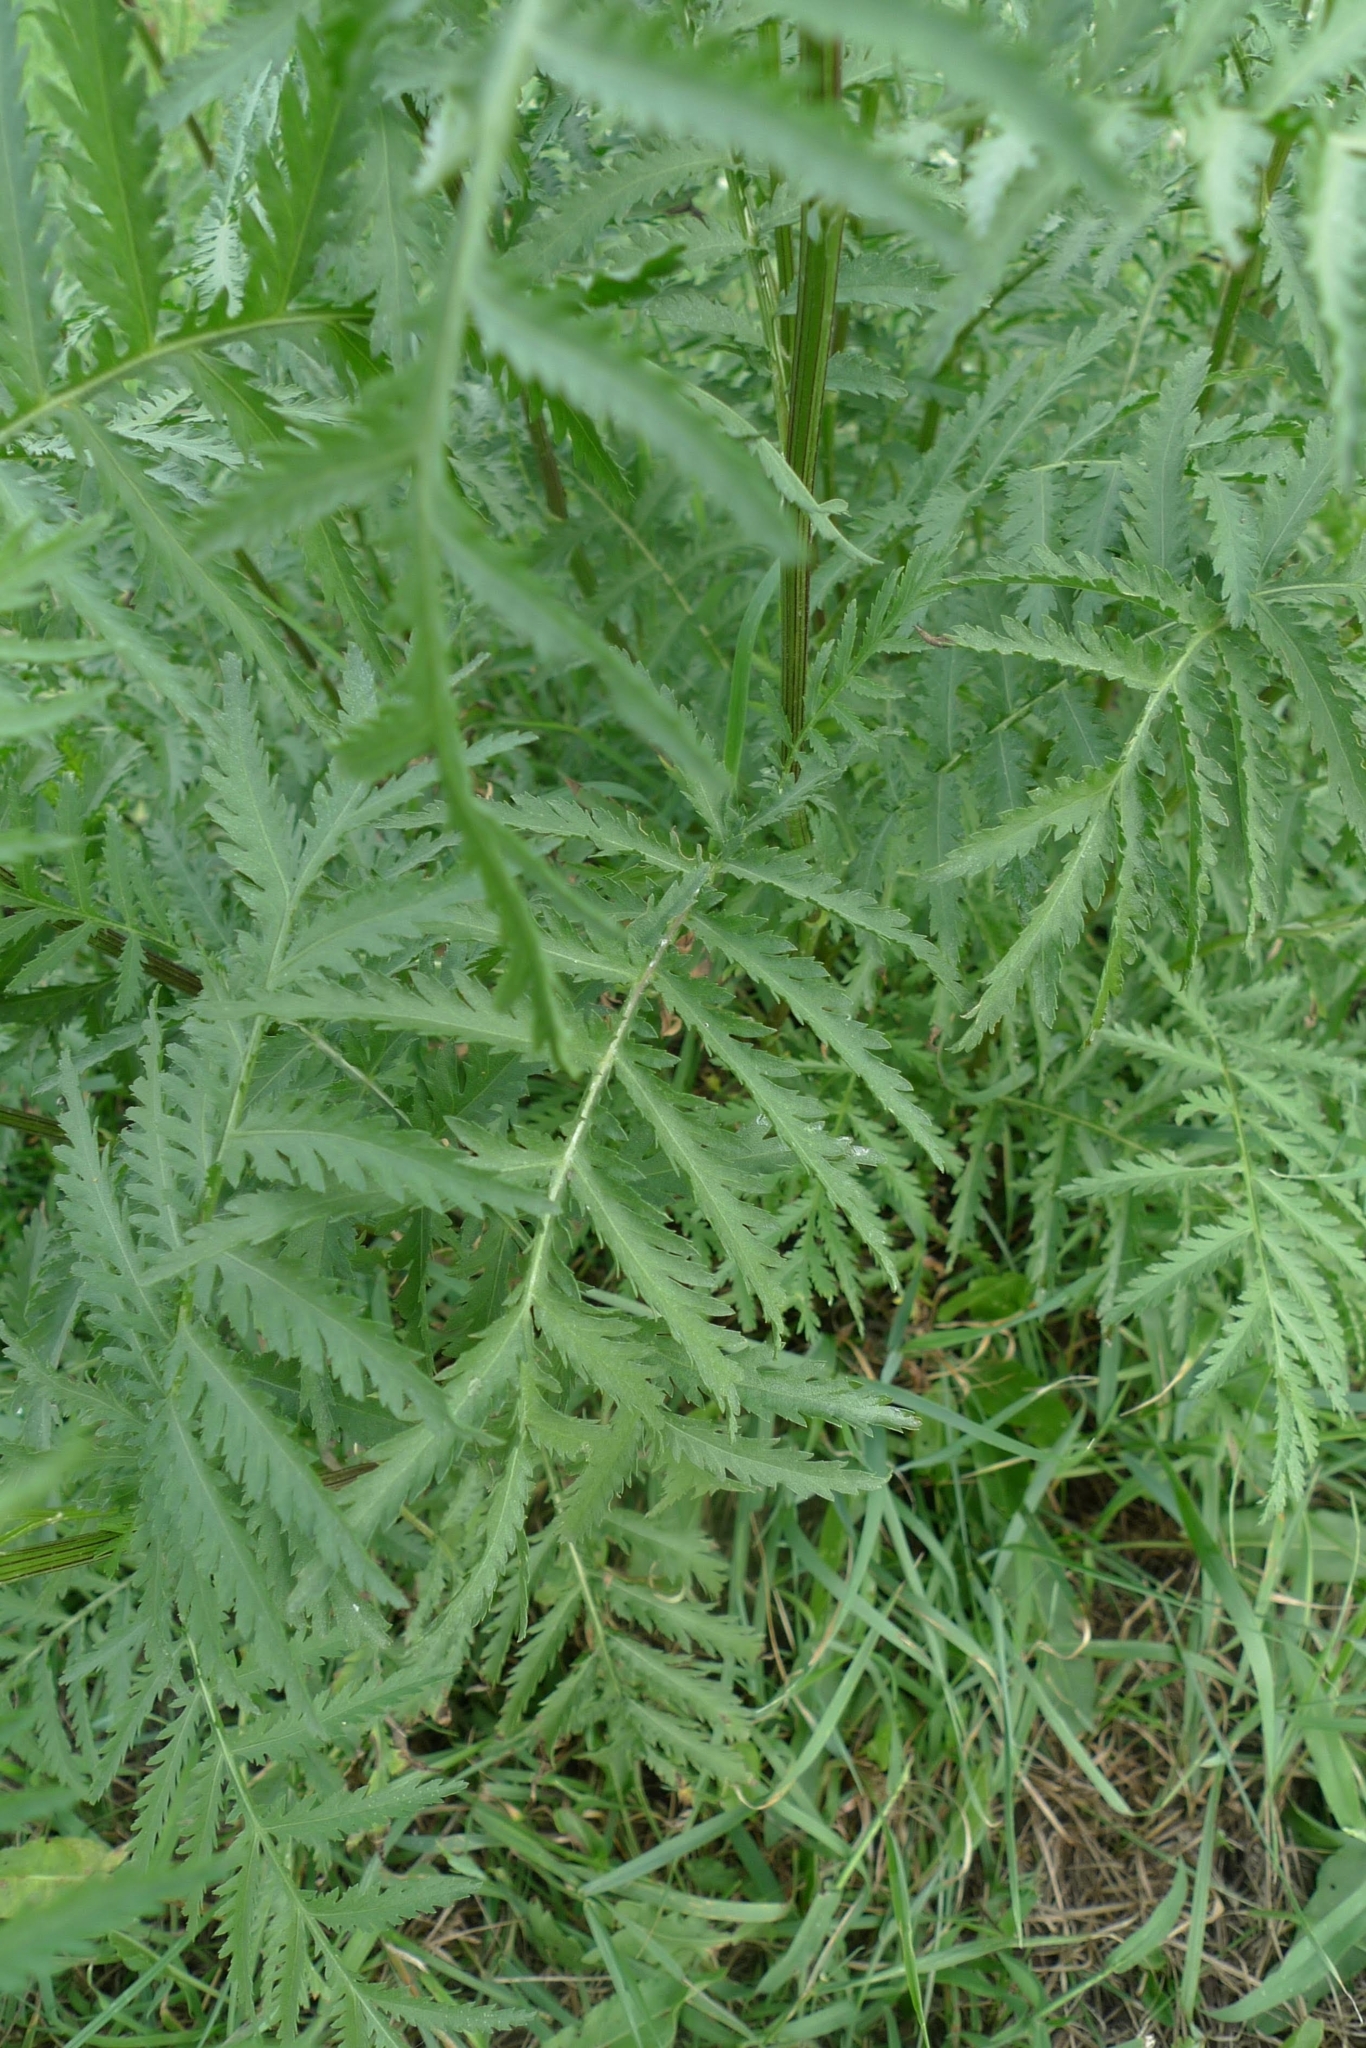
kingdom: Plantae
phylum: Tracheophyta
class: Magnoliopsida
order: Asterales
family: Asteraceae
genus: Tanacetum
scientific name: Tanacetum vulgare
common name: Common tansy
